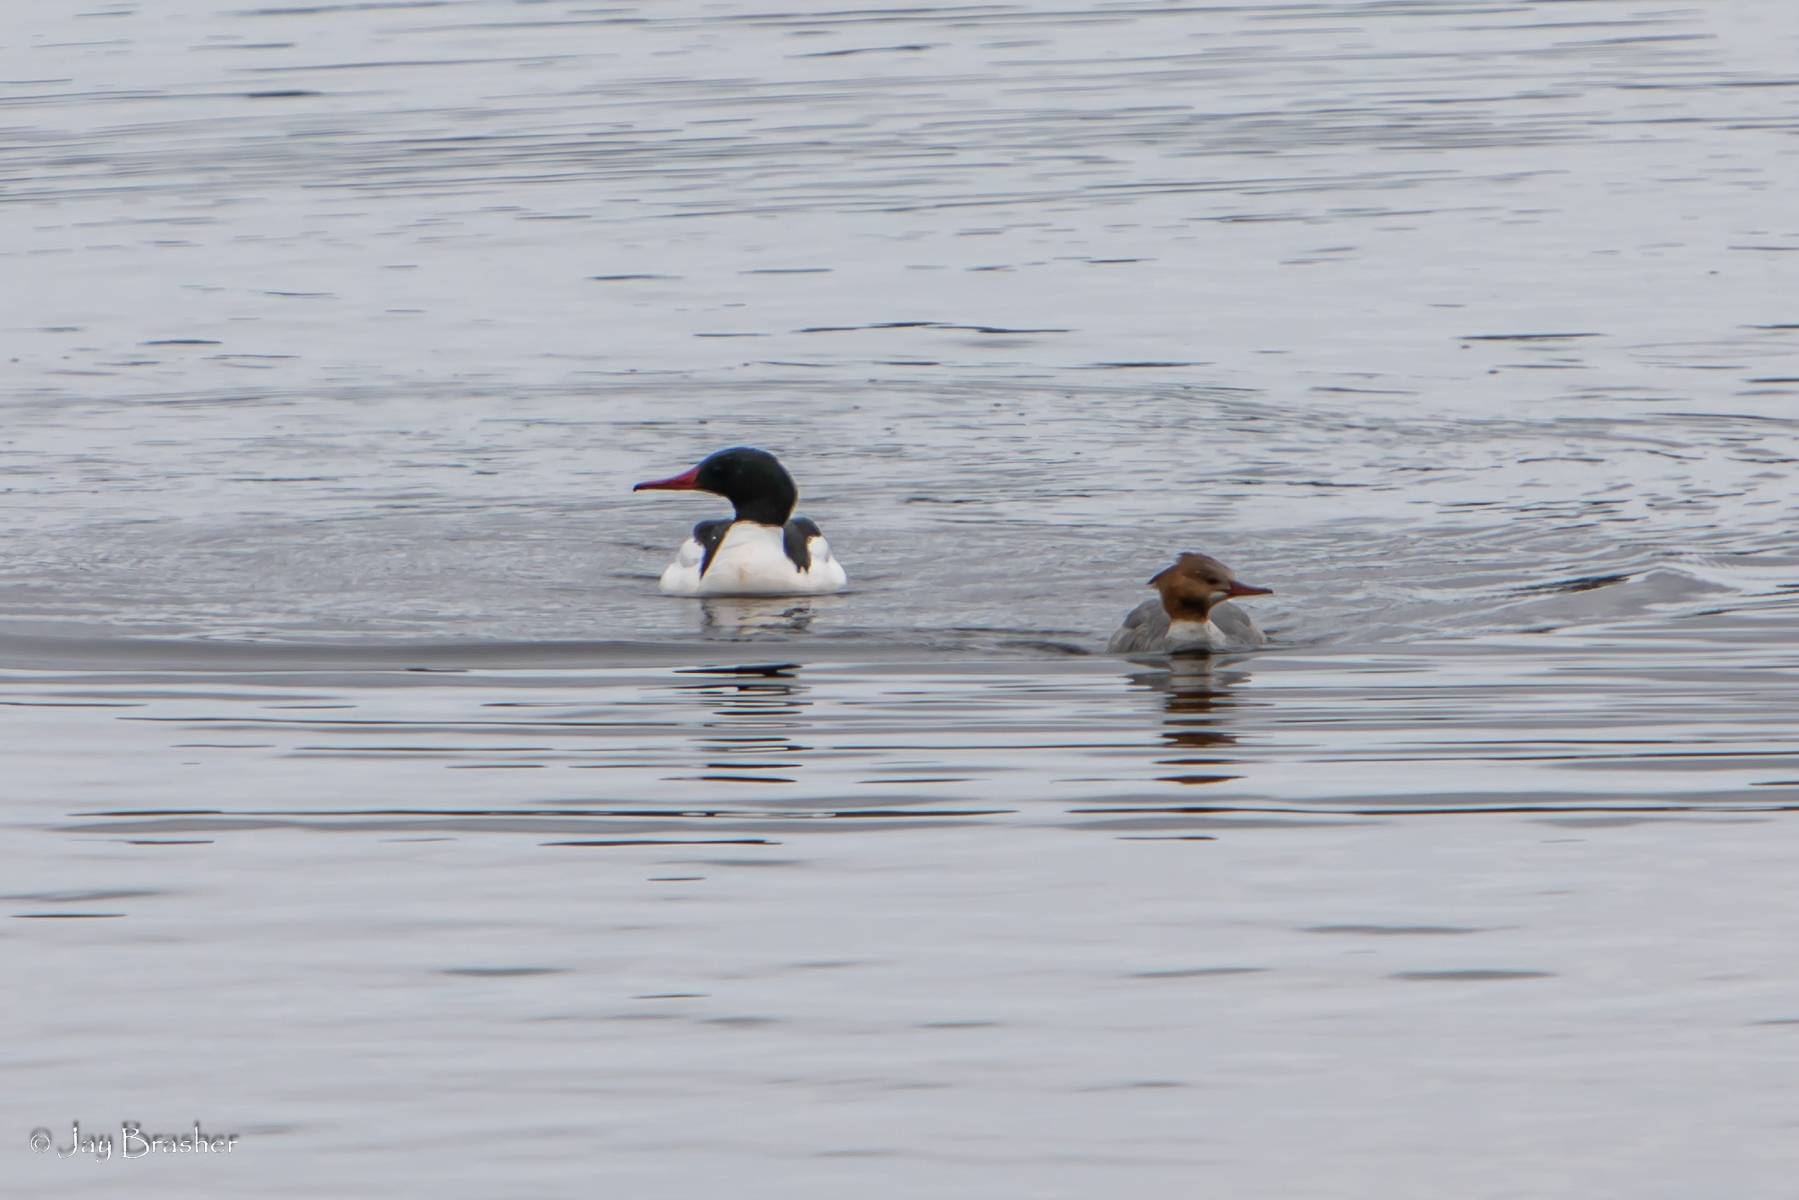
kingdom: Animalia
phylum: Chordata
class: Aves
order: Anseriformes
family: Anatidae
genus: Mergus
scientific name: Mergus merganser
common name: Common merganser
